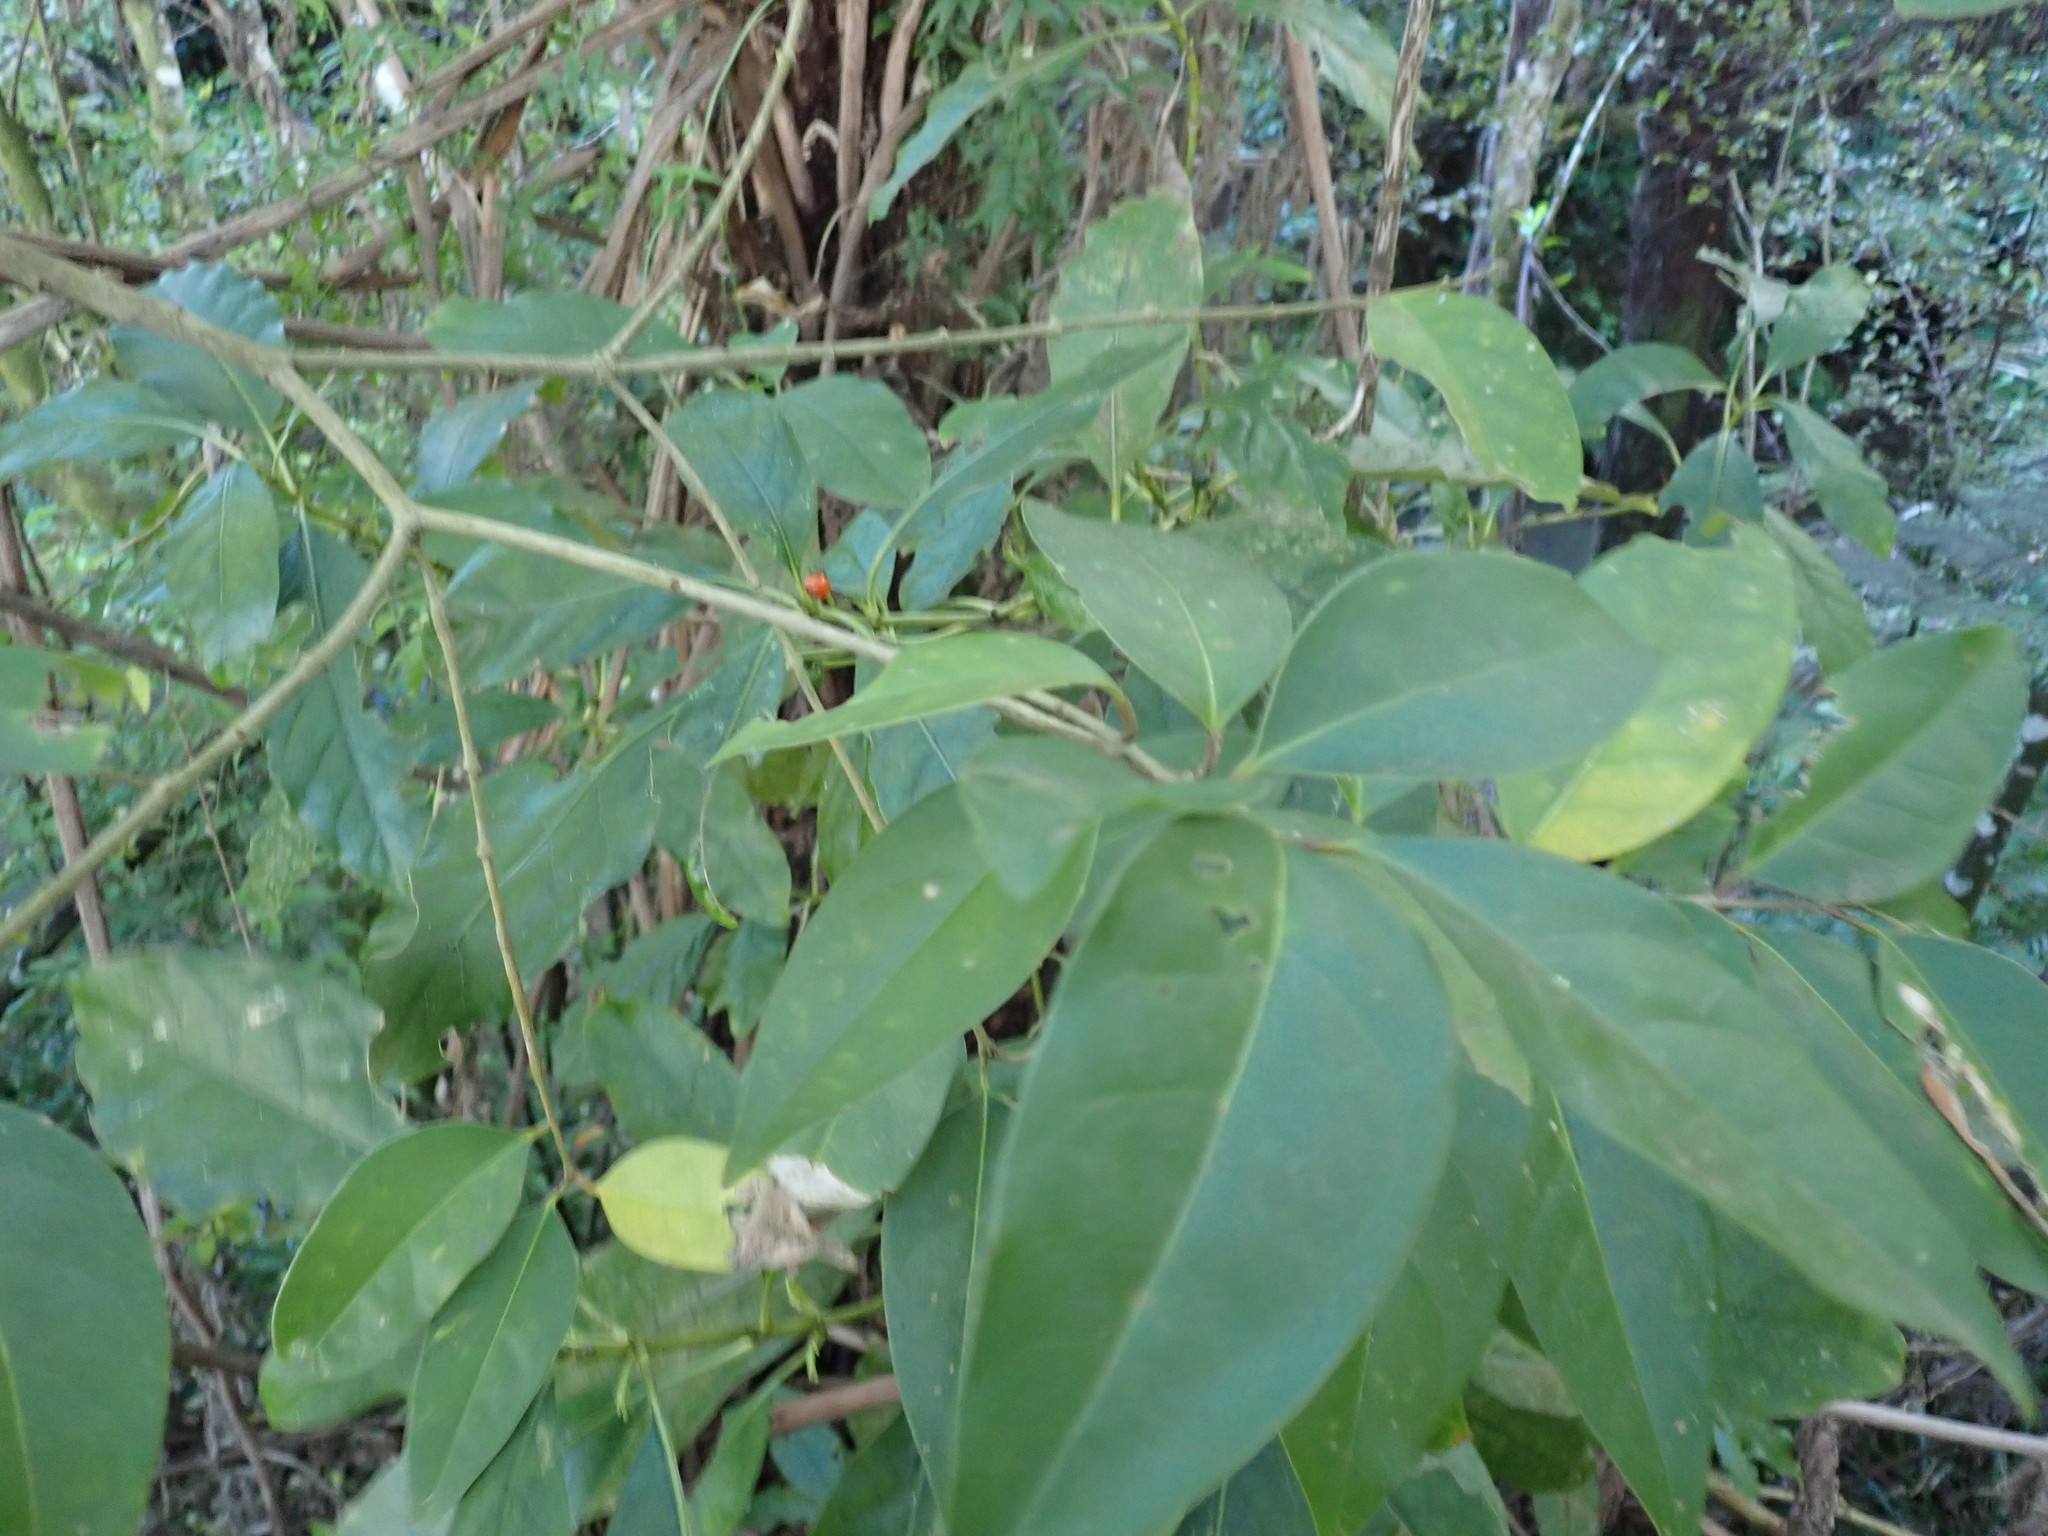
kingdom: Plantae
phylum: Tracheophyta
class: Magnoliopsida
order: Lamiales
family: Oleaceae
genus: Ligustrum
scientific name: Ligustrum lucidum
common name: Glossy privet
